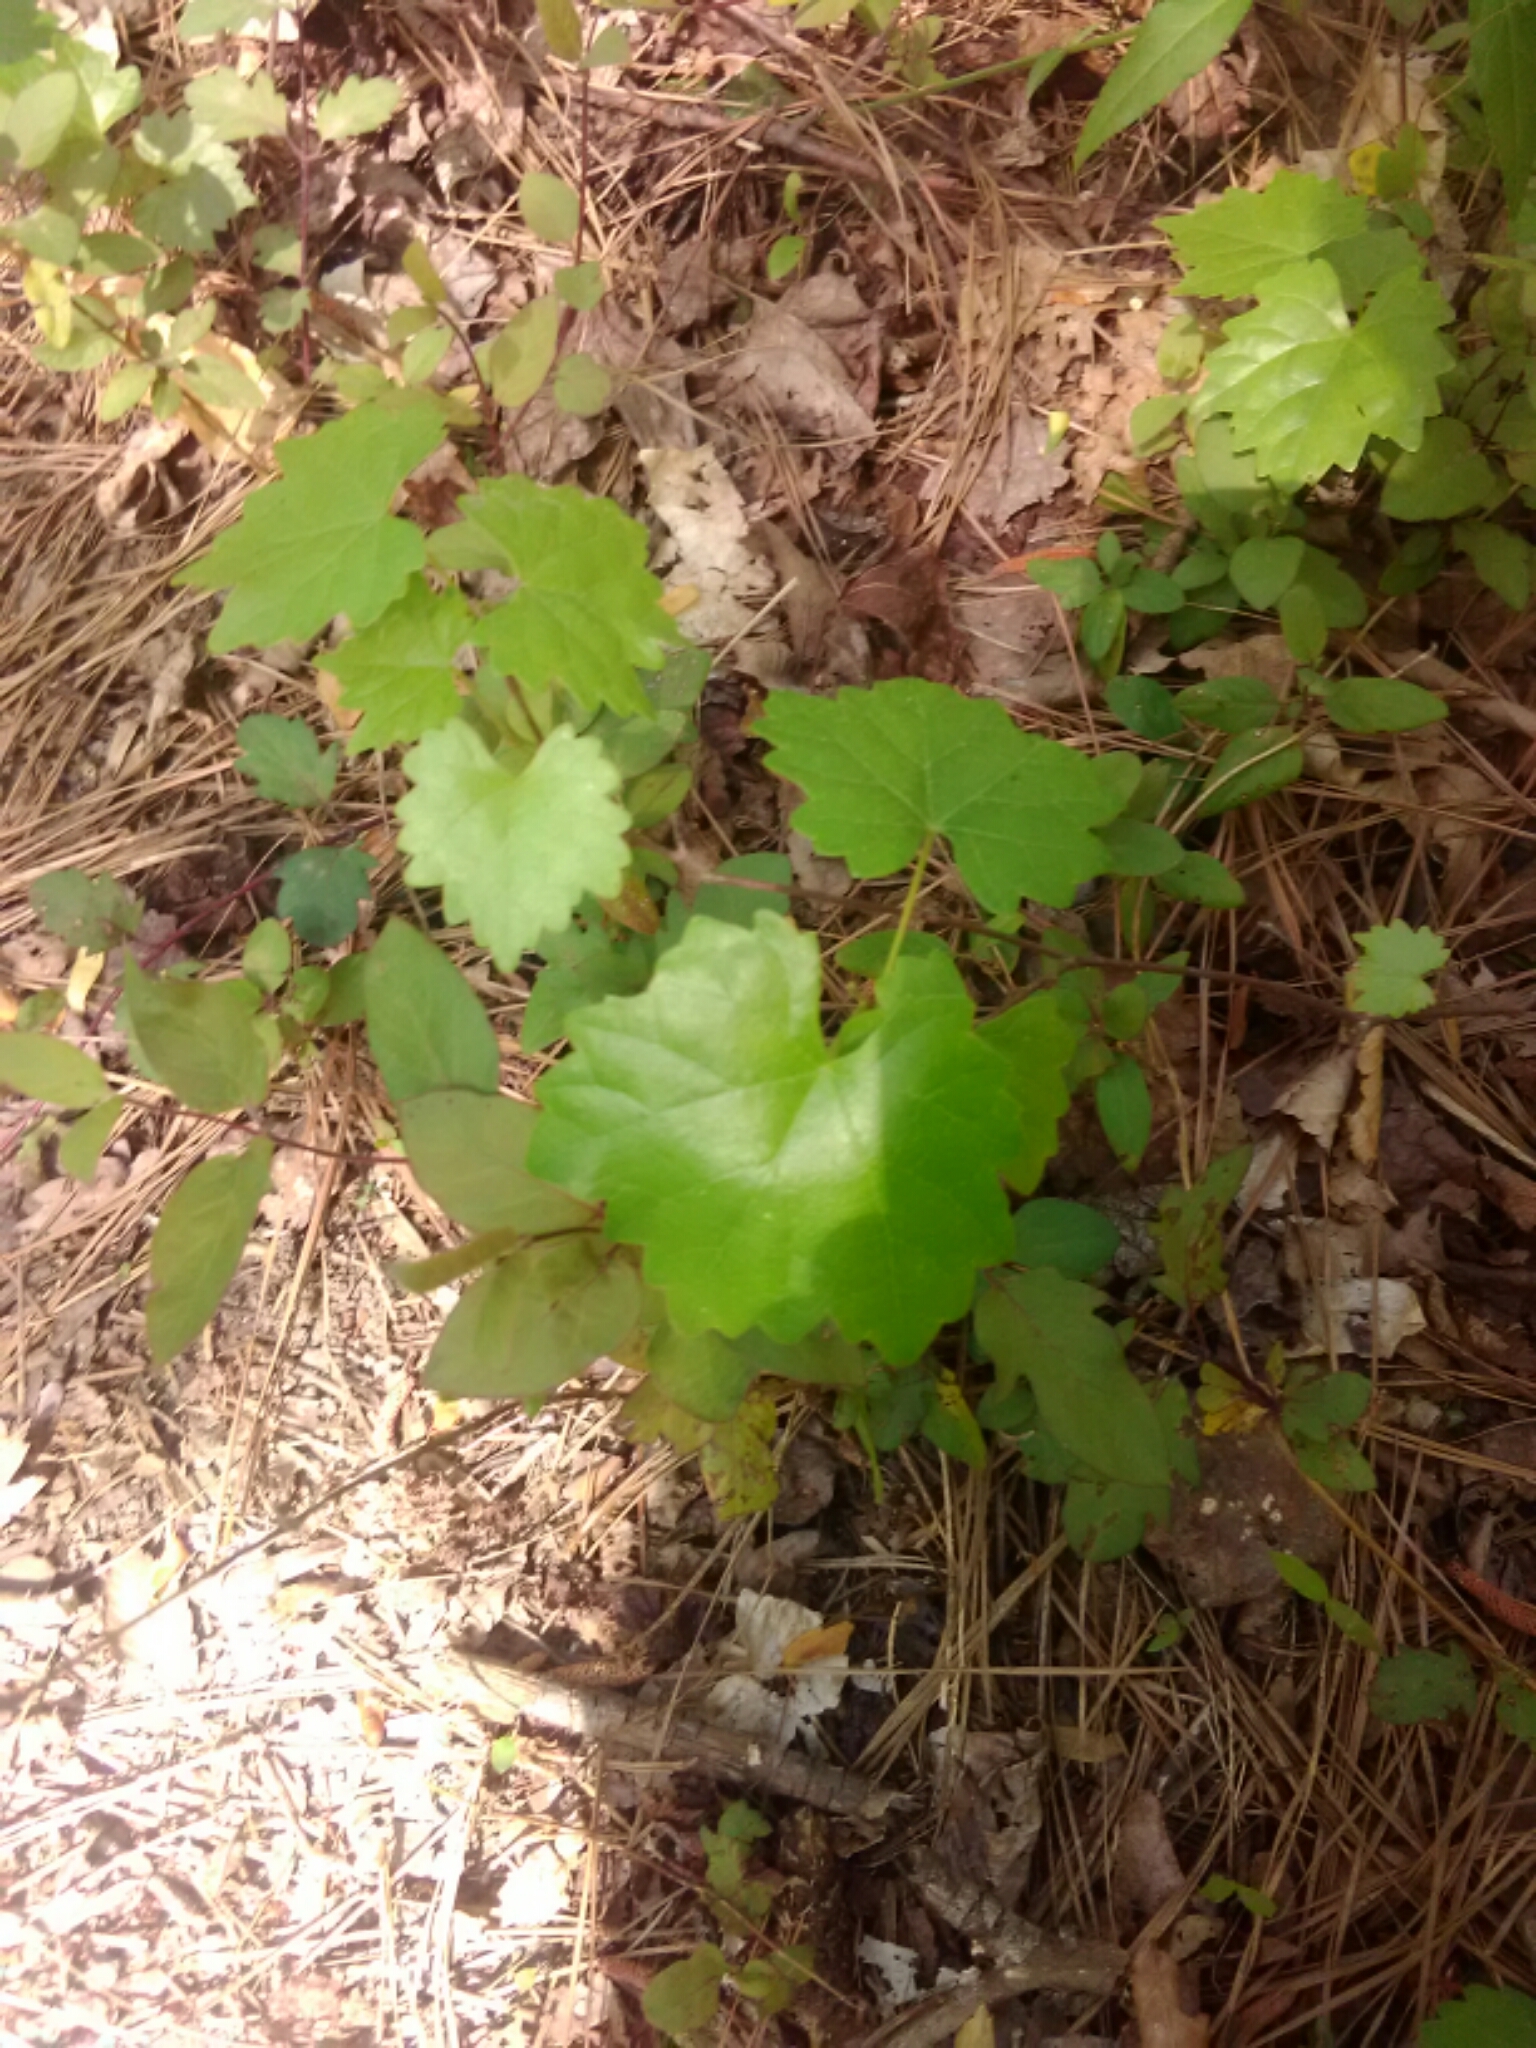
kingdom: Plantae
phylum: Tracheophyta
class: Magnoliopsida
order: Vitales
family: Vitaceae
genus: Vitis
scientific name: Vitis rotundifolia
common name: Muscadine grape
